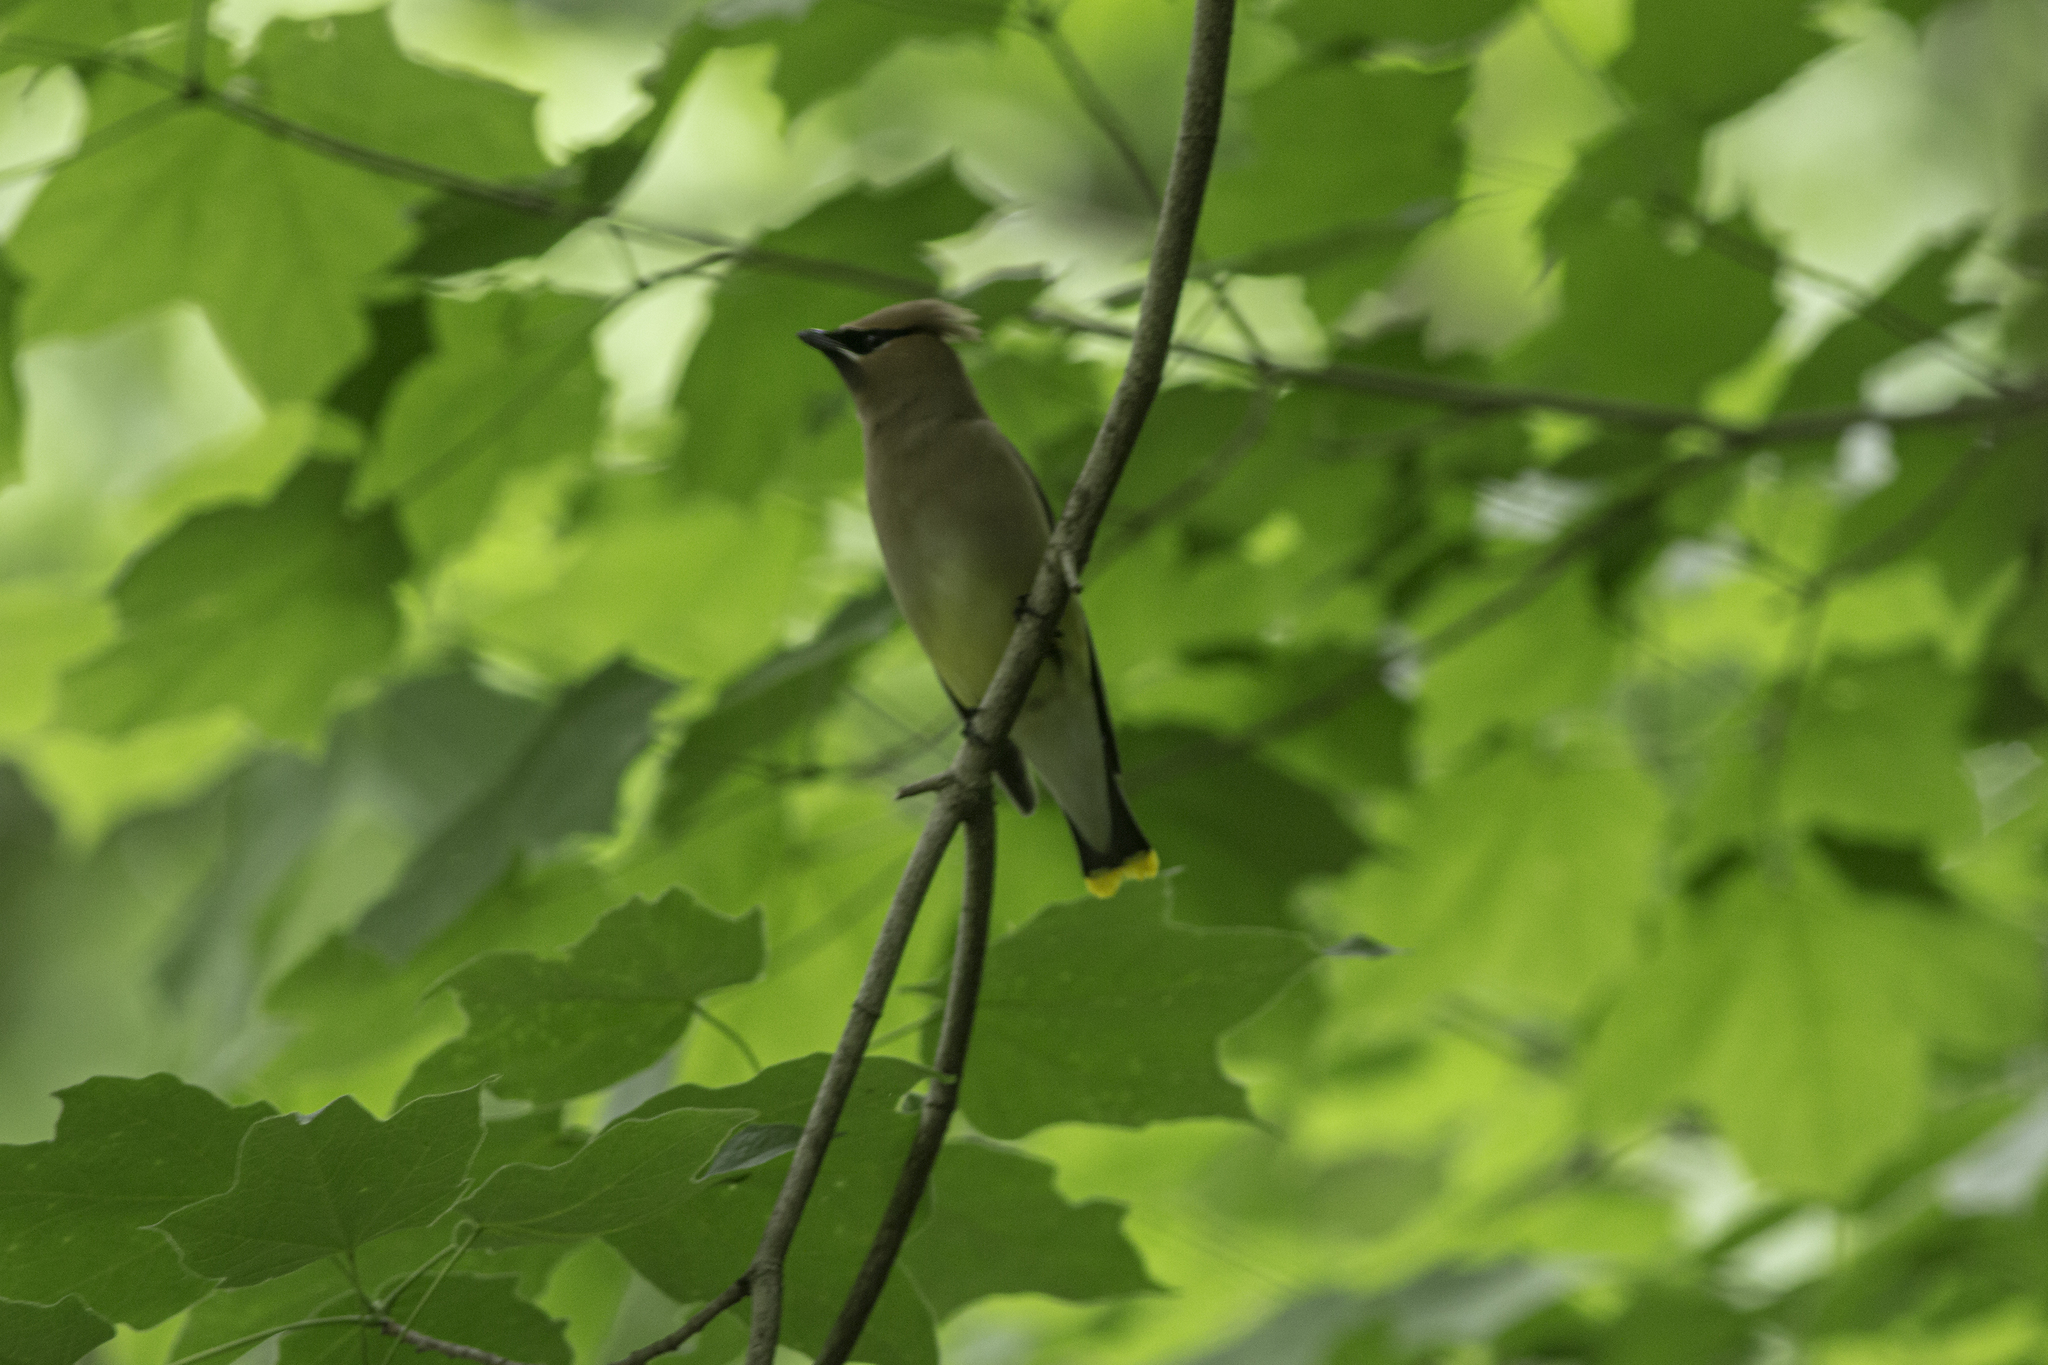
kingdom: Animalia
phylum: Chordata
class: Aves
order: Passeriformes
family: Bombycillidae
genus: Bombycilla
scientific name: Bombycilla cedrorum
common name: Cedar waxwing
